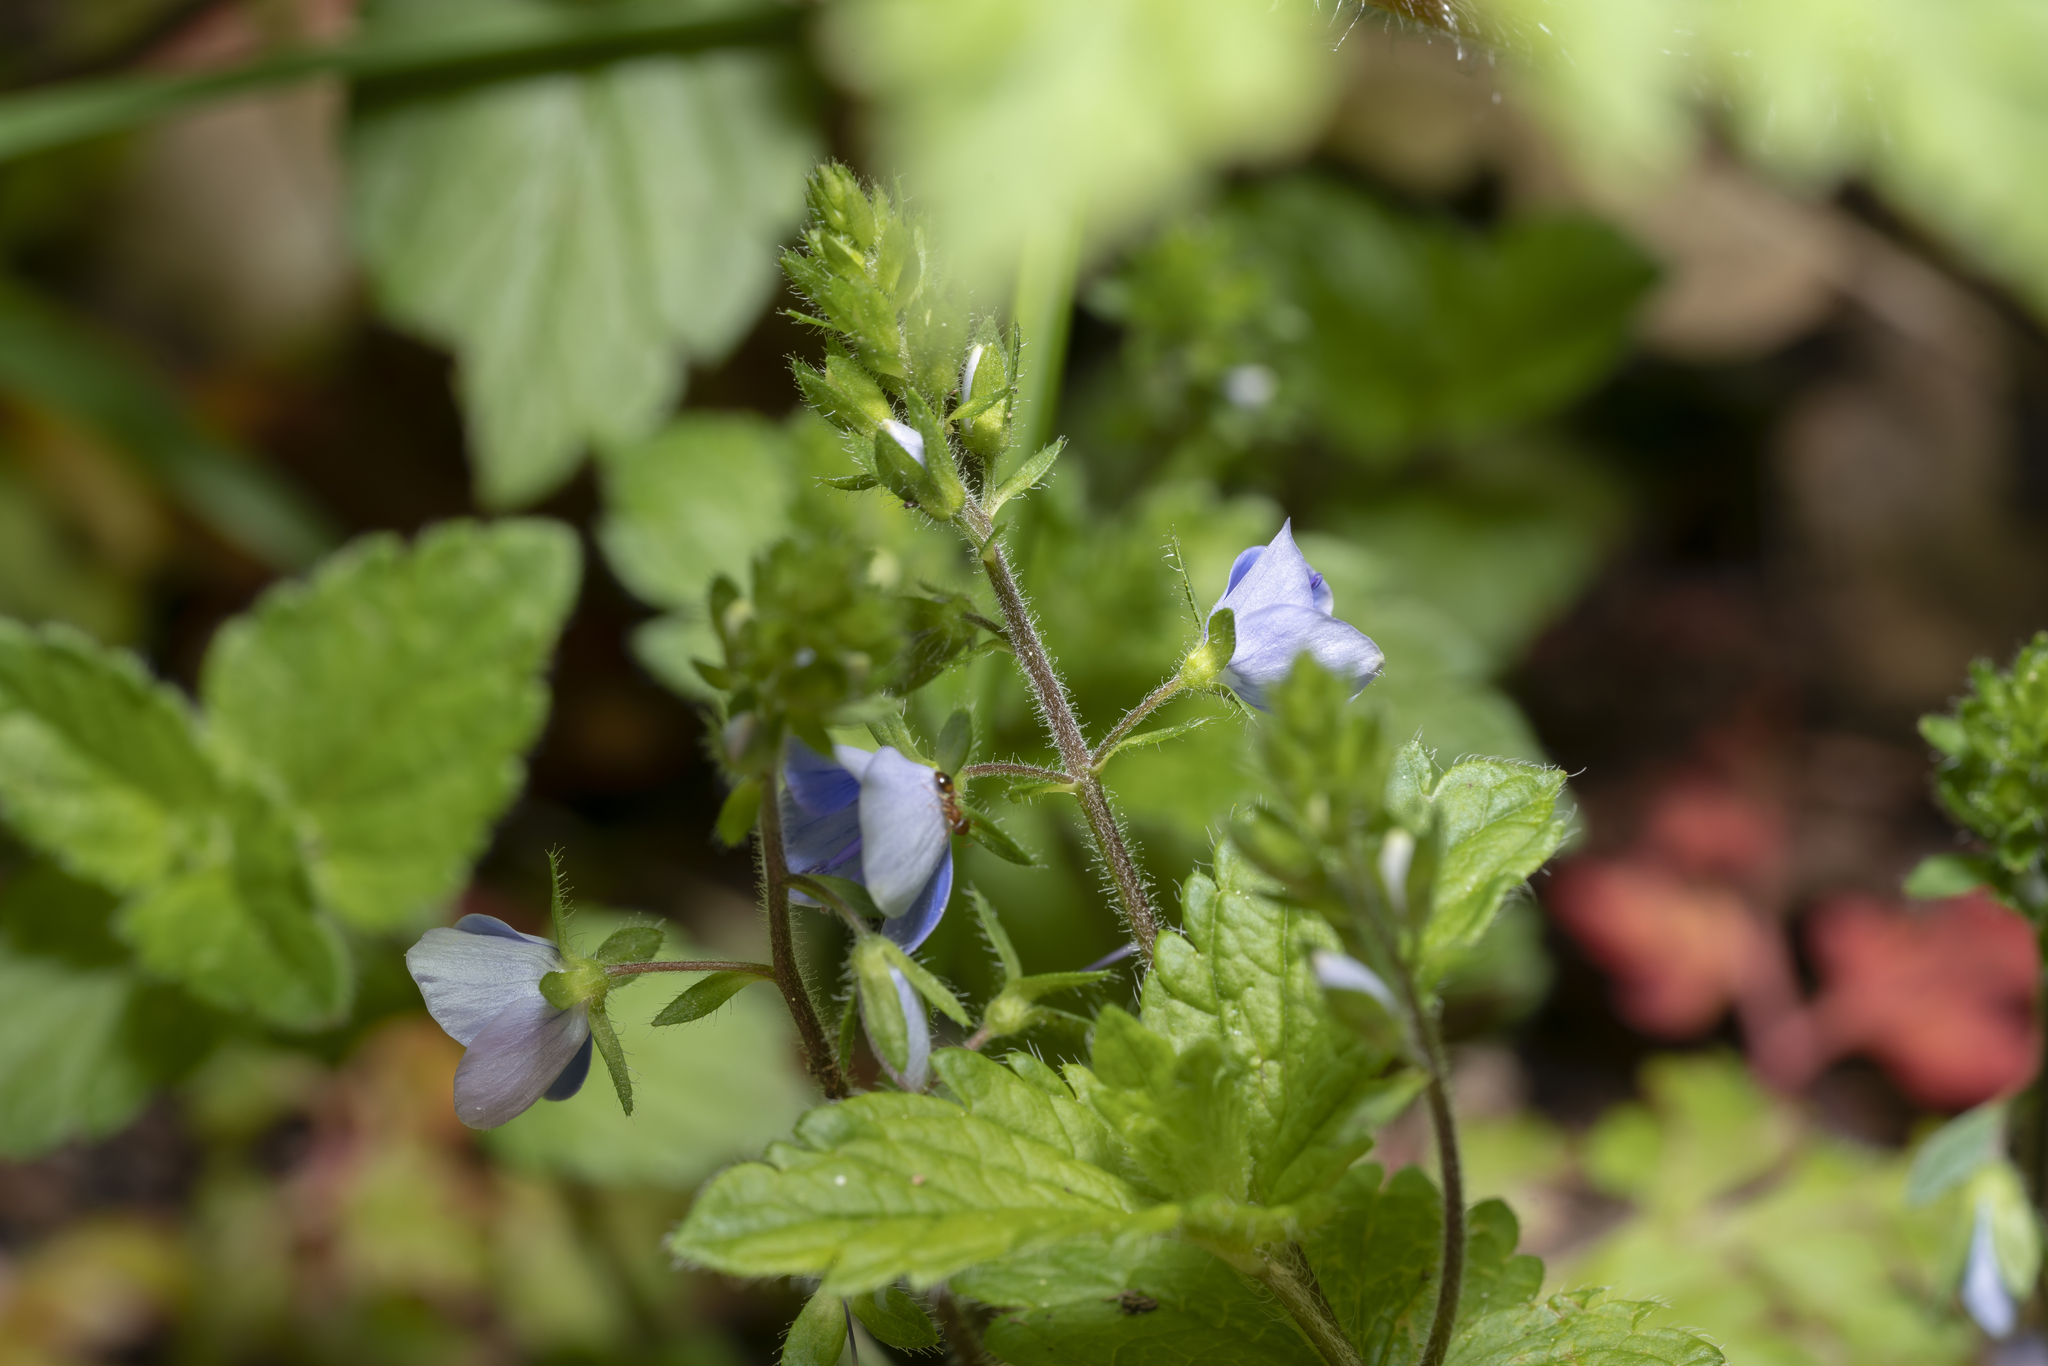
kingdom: Plantae
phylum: Tracheophyta
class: Magnoliopsida
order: Lamiales
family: Plantaginaceae
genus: Veronica
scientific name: Veronica chamaedrys
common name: Germander speedwell
